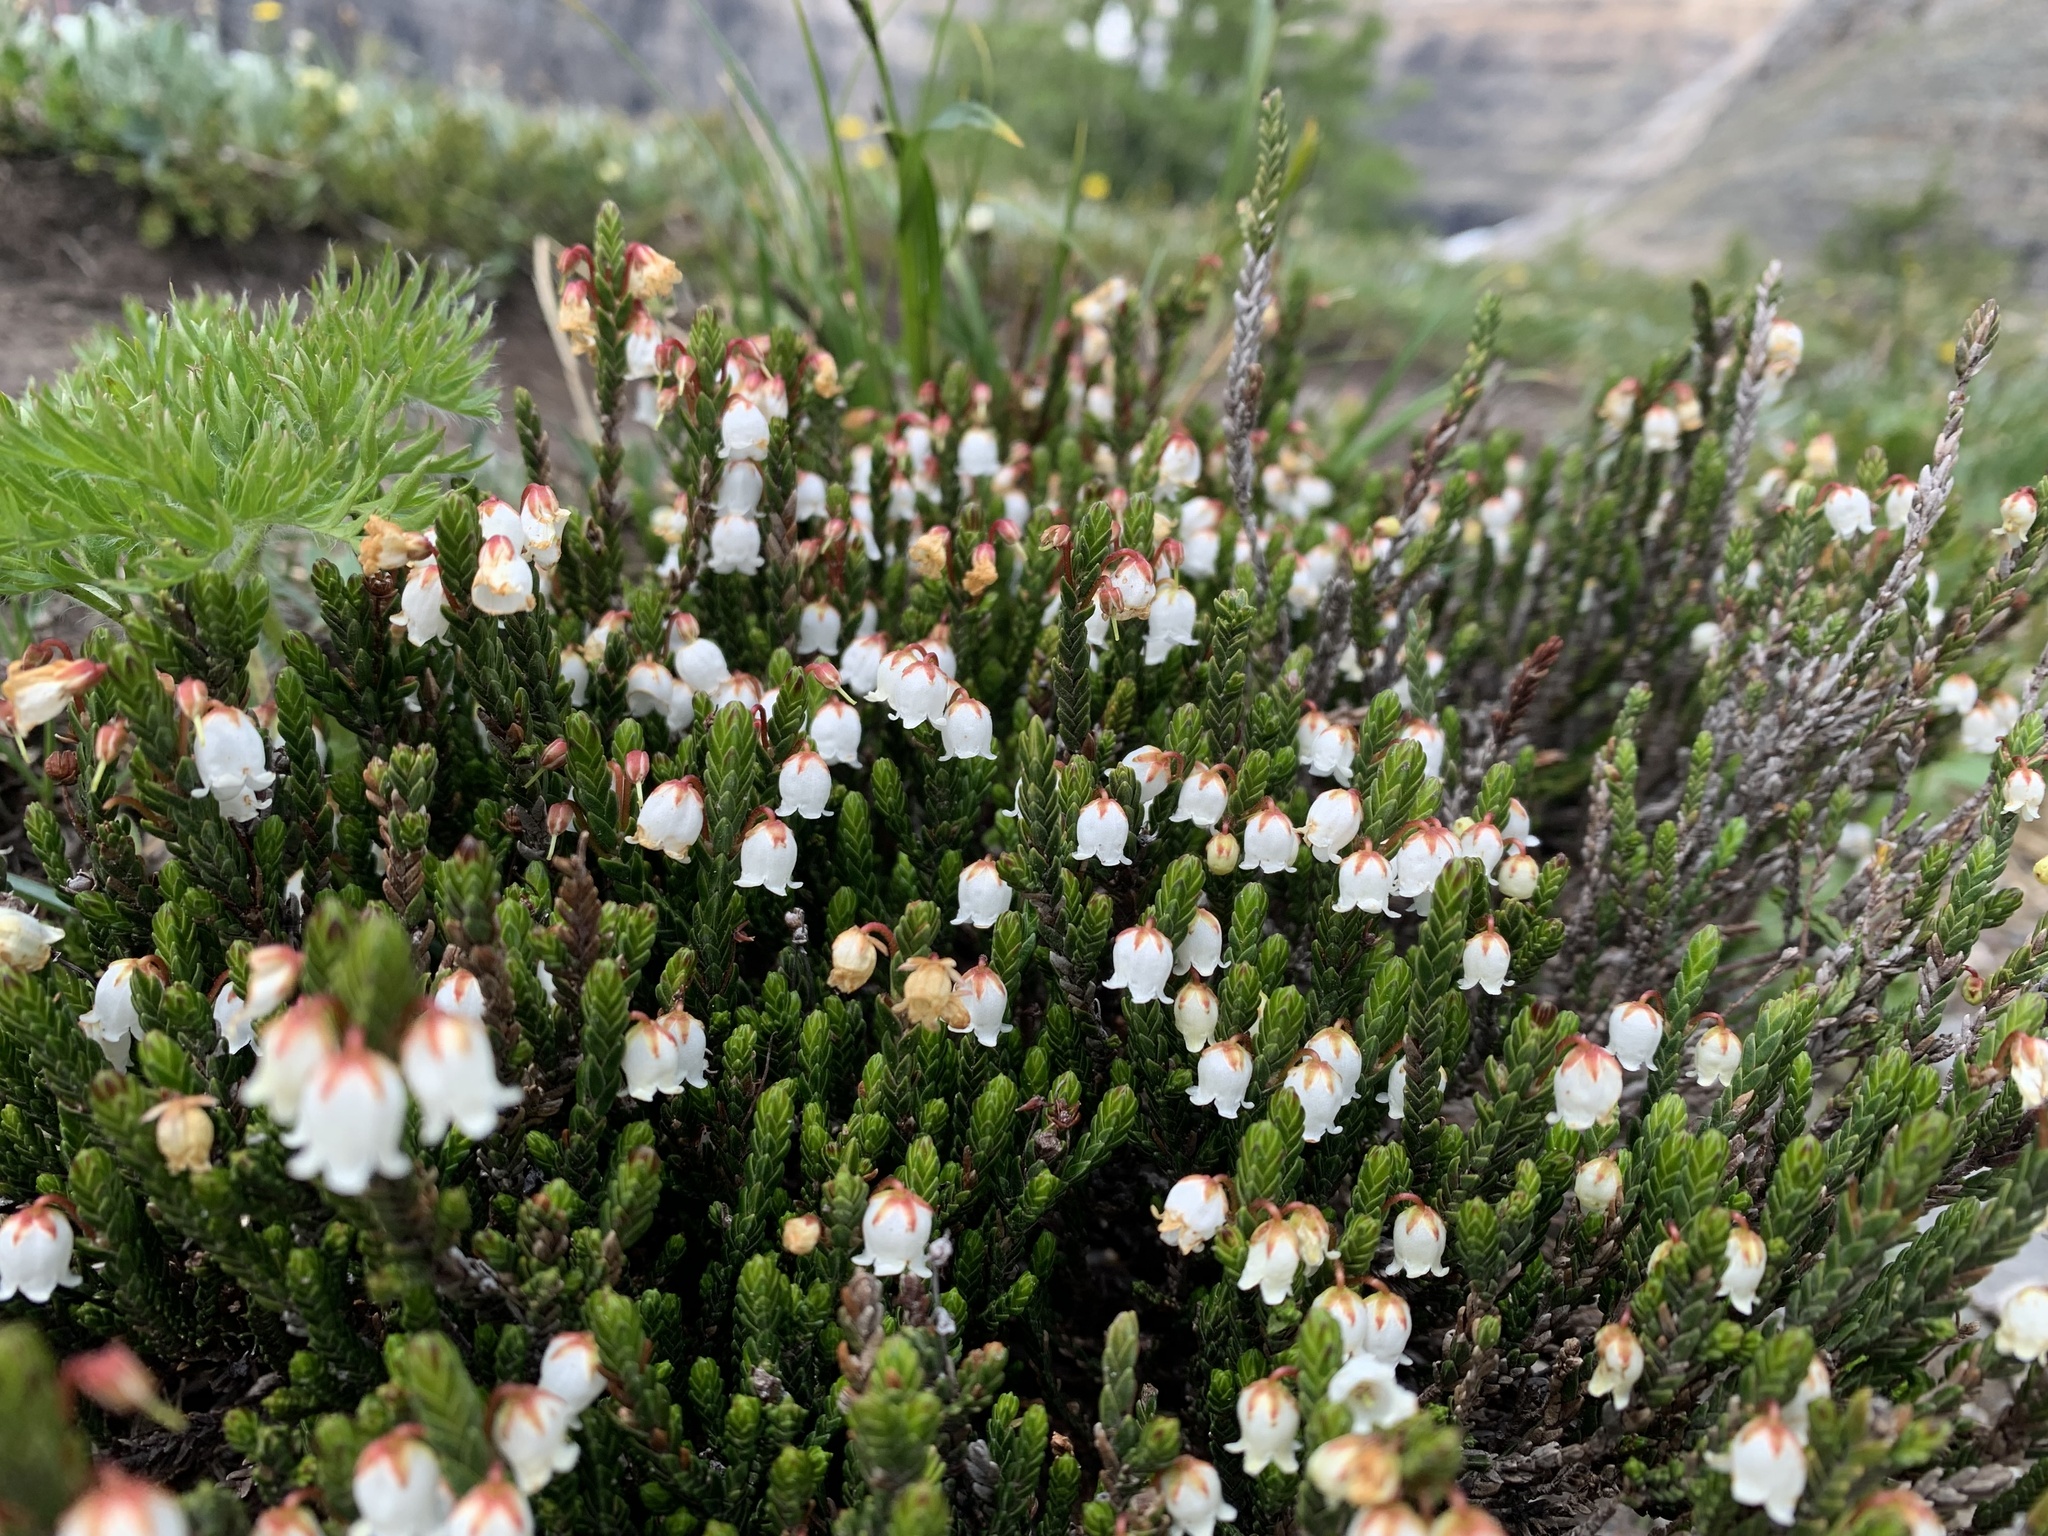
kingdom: Plantae
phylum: Tracheophyta
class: Magnoliopsida
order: Ericales
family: Ericaceae
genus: Cassiope
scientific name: Cassiope tetragona
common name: Arctic bell heather
